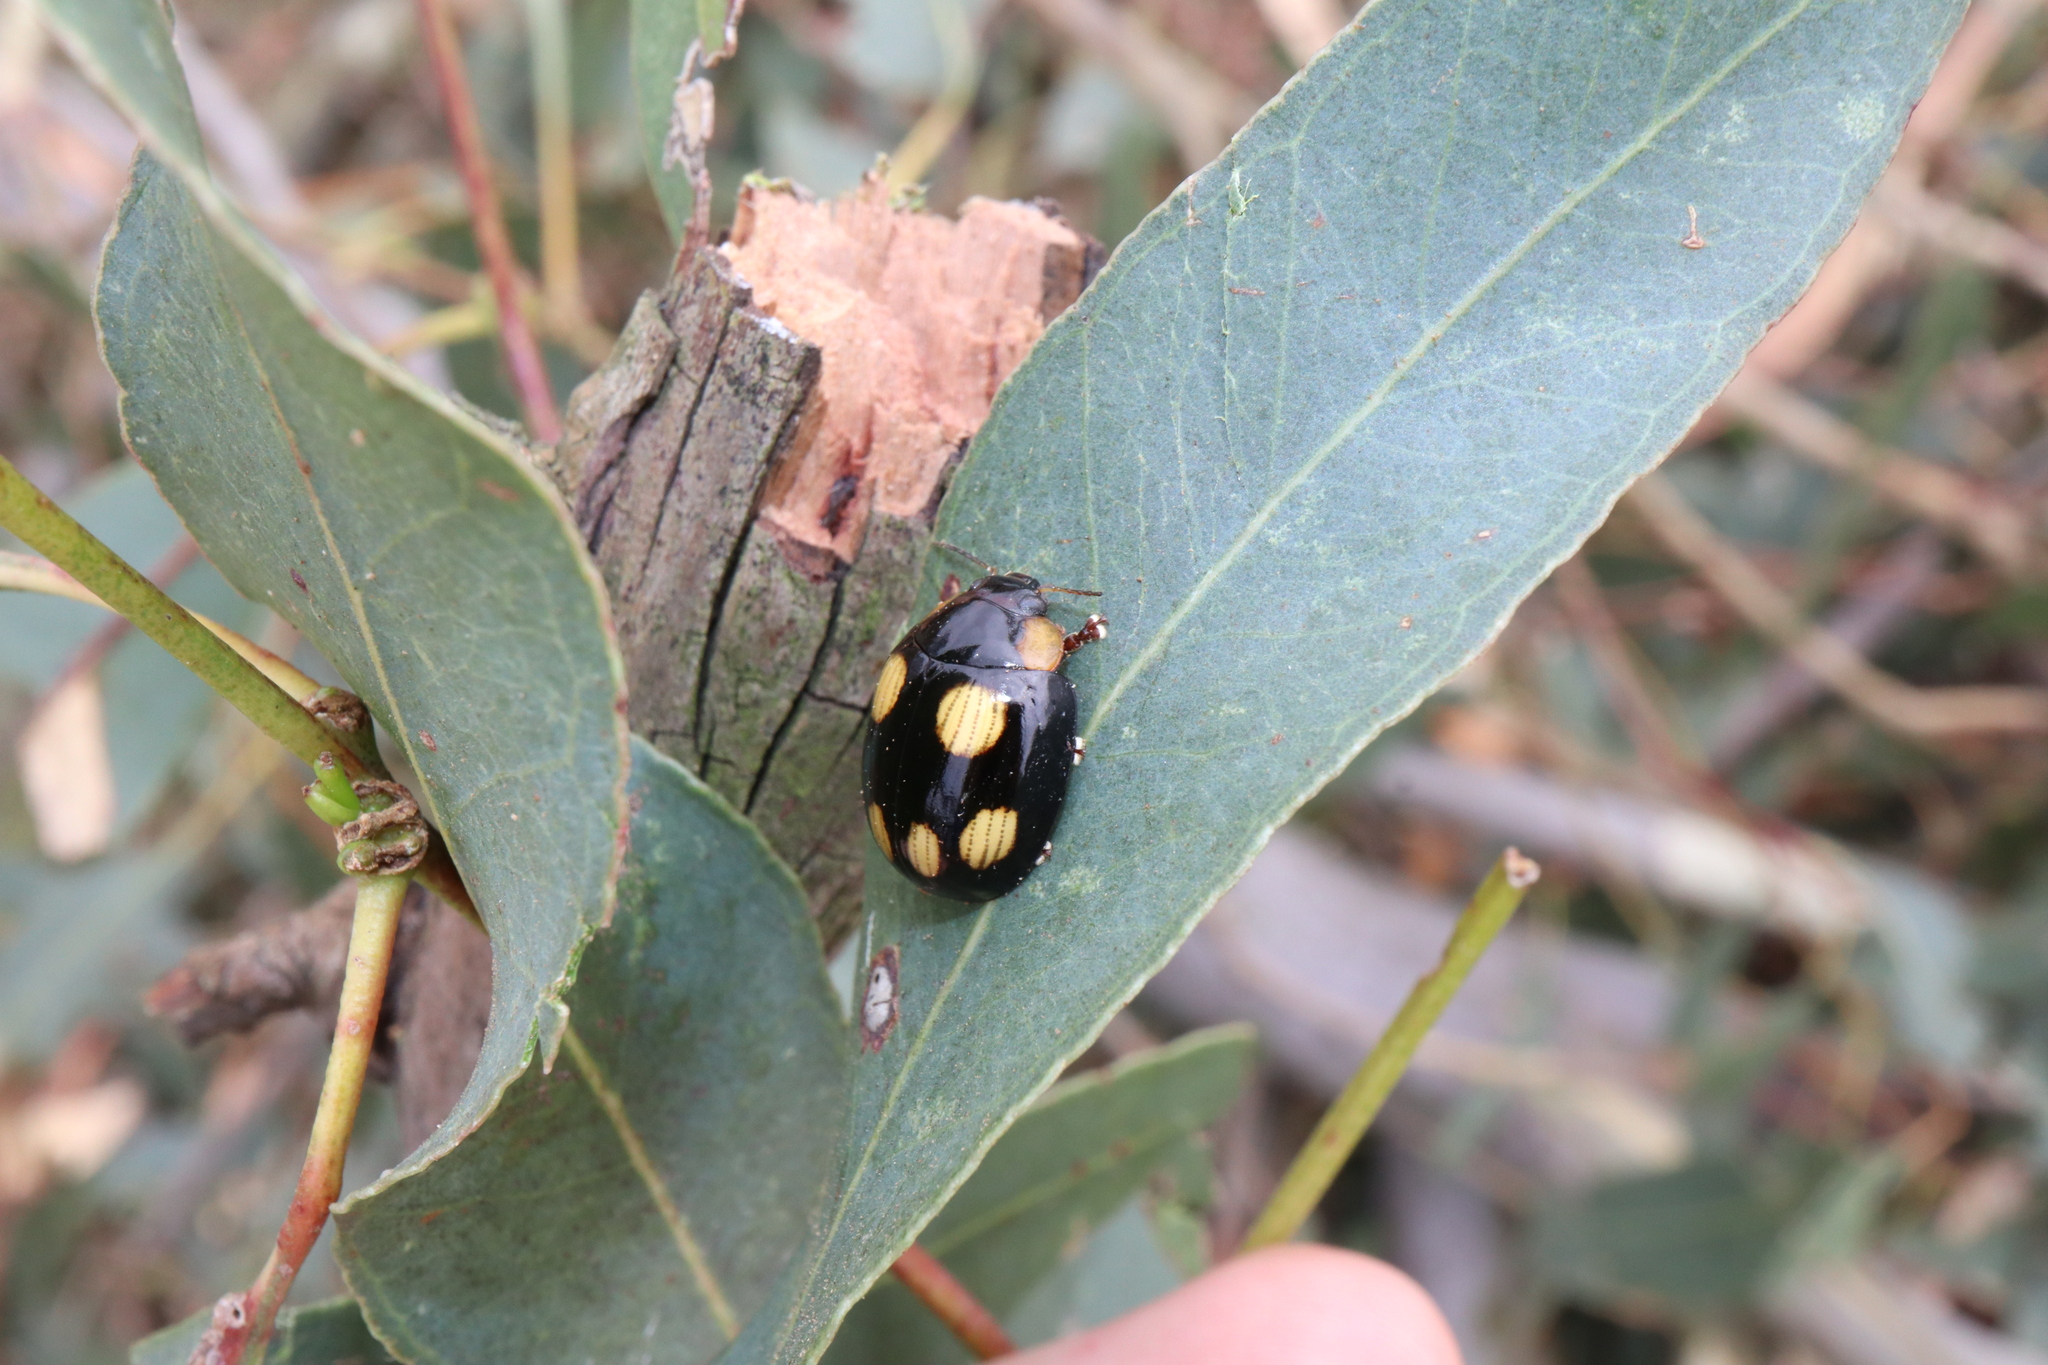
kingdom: Animalia
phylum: Arthropoda
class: Insecta
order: Coleoptera
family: Chrysomelidae
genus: Paropsisterna
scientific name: Paropsisterna
